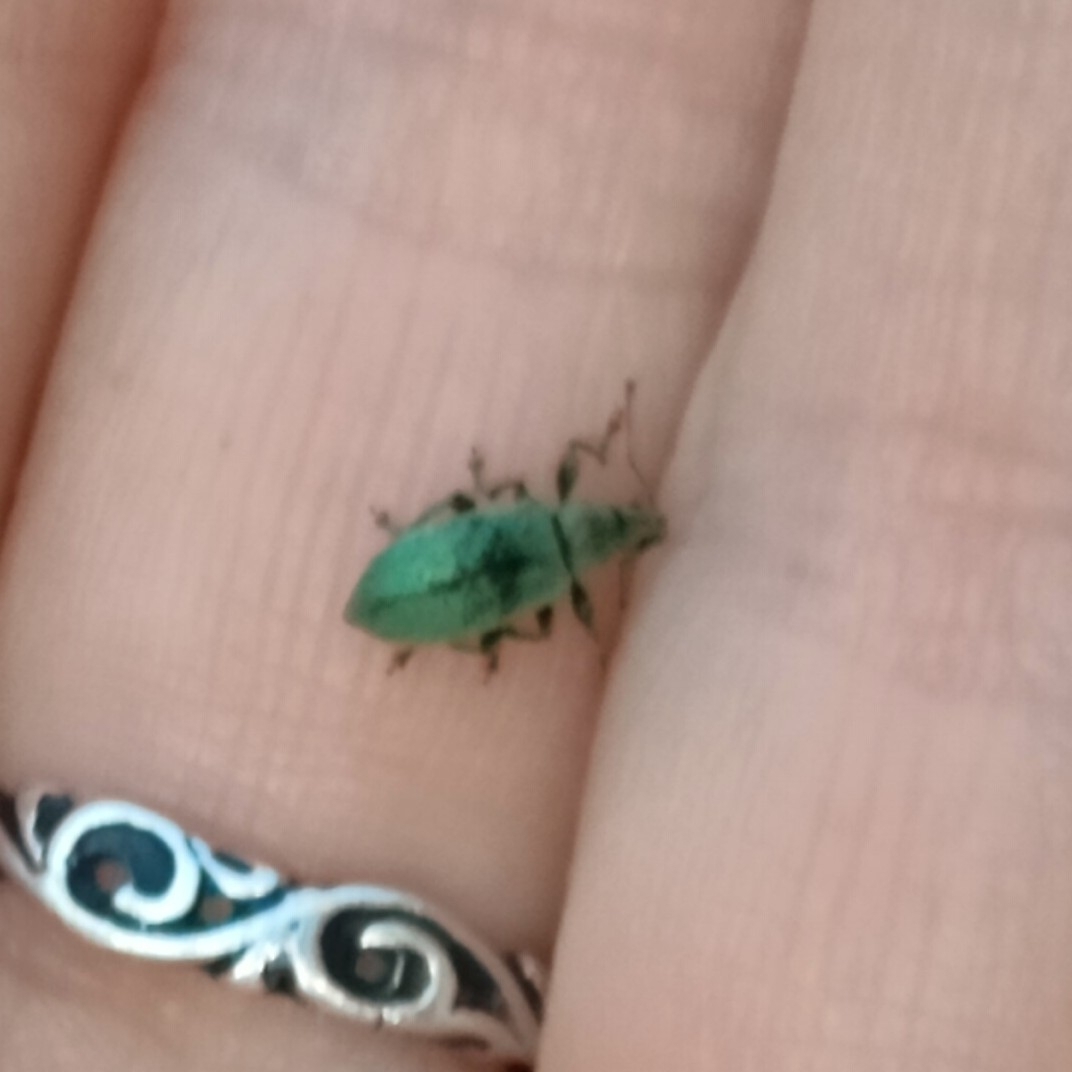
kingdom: Animalia
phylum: Arthropoda
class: Insecta
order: Coleoptera
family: Curculionidae
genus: Phyllobius
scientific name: Phyllobius pomaceus
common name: Green nettle weevil
